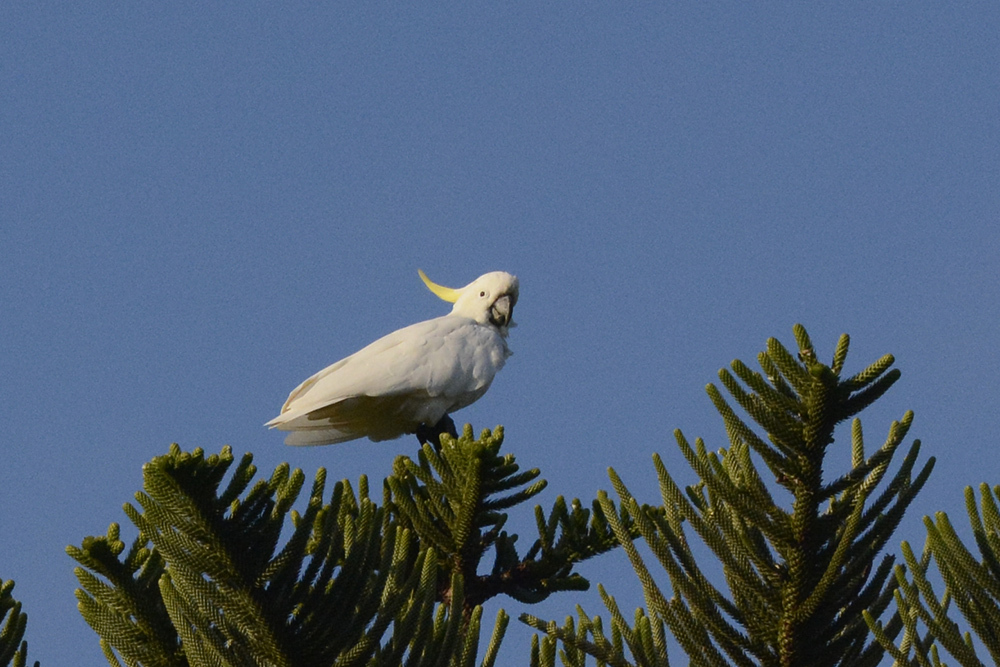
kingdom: Animalia
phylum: Chordata
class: Aves
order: Psittaciformes
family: Psittacidae
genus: Cacatua
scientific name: Cacatua galerita
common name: Sulphur-crested cockatoo
